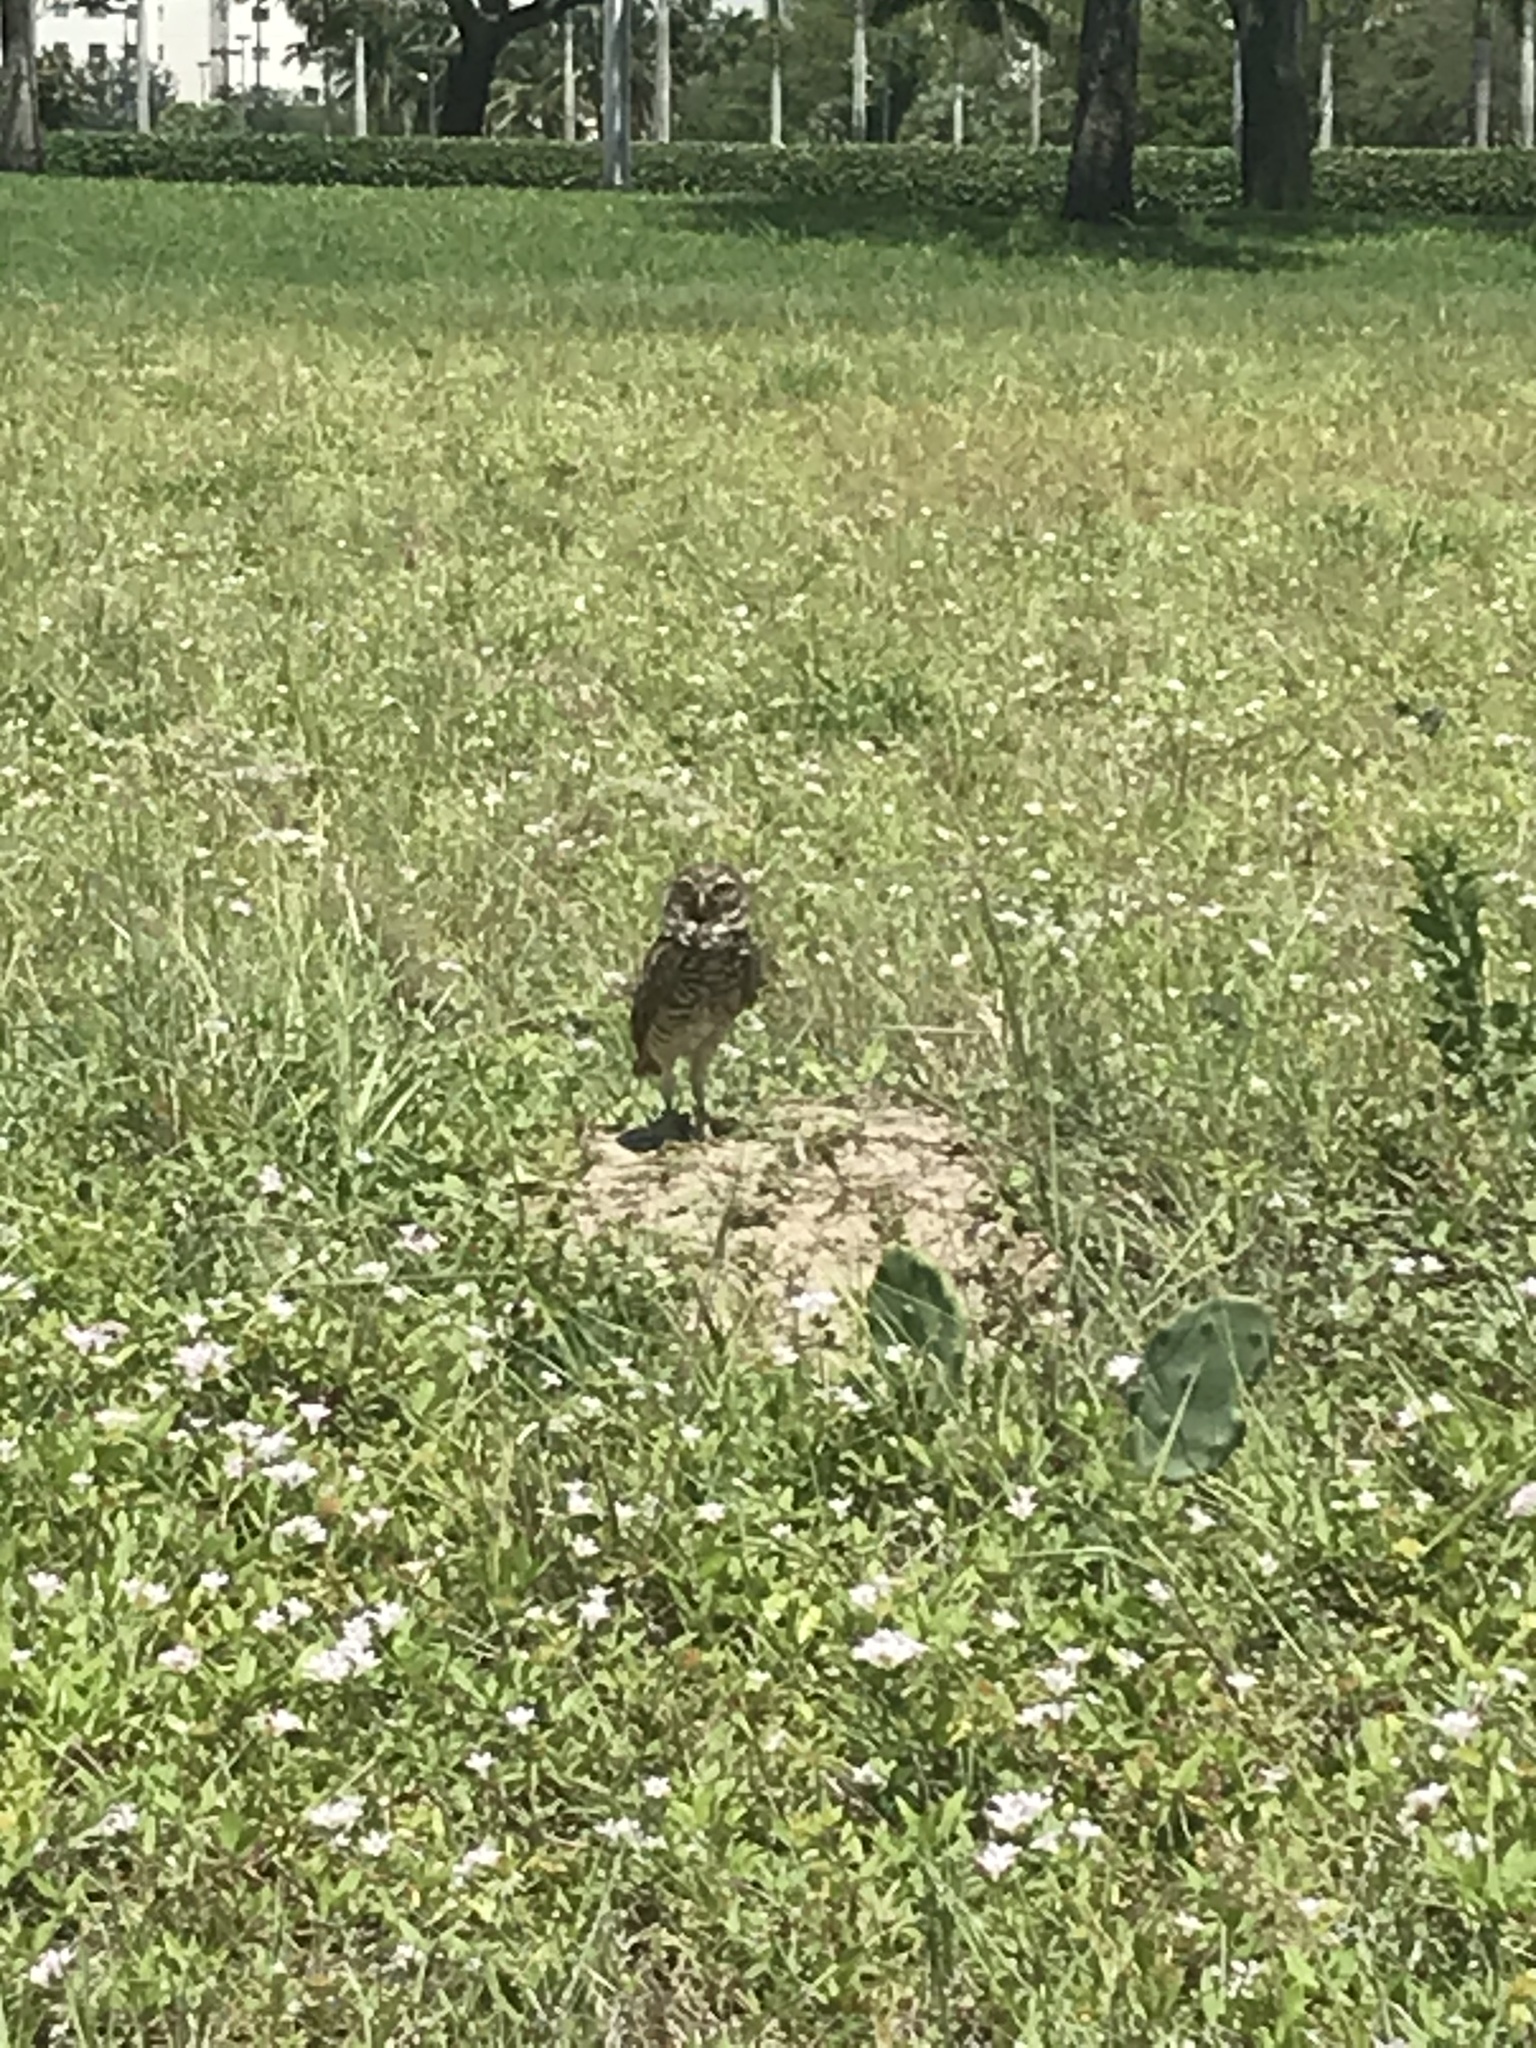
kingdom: Animalia
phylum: Chordata
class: Aves
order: Strigiformes
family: Strigidae
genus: Athene
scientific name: Athene cunicularia
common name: Burrowing owl
